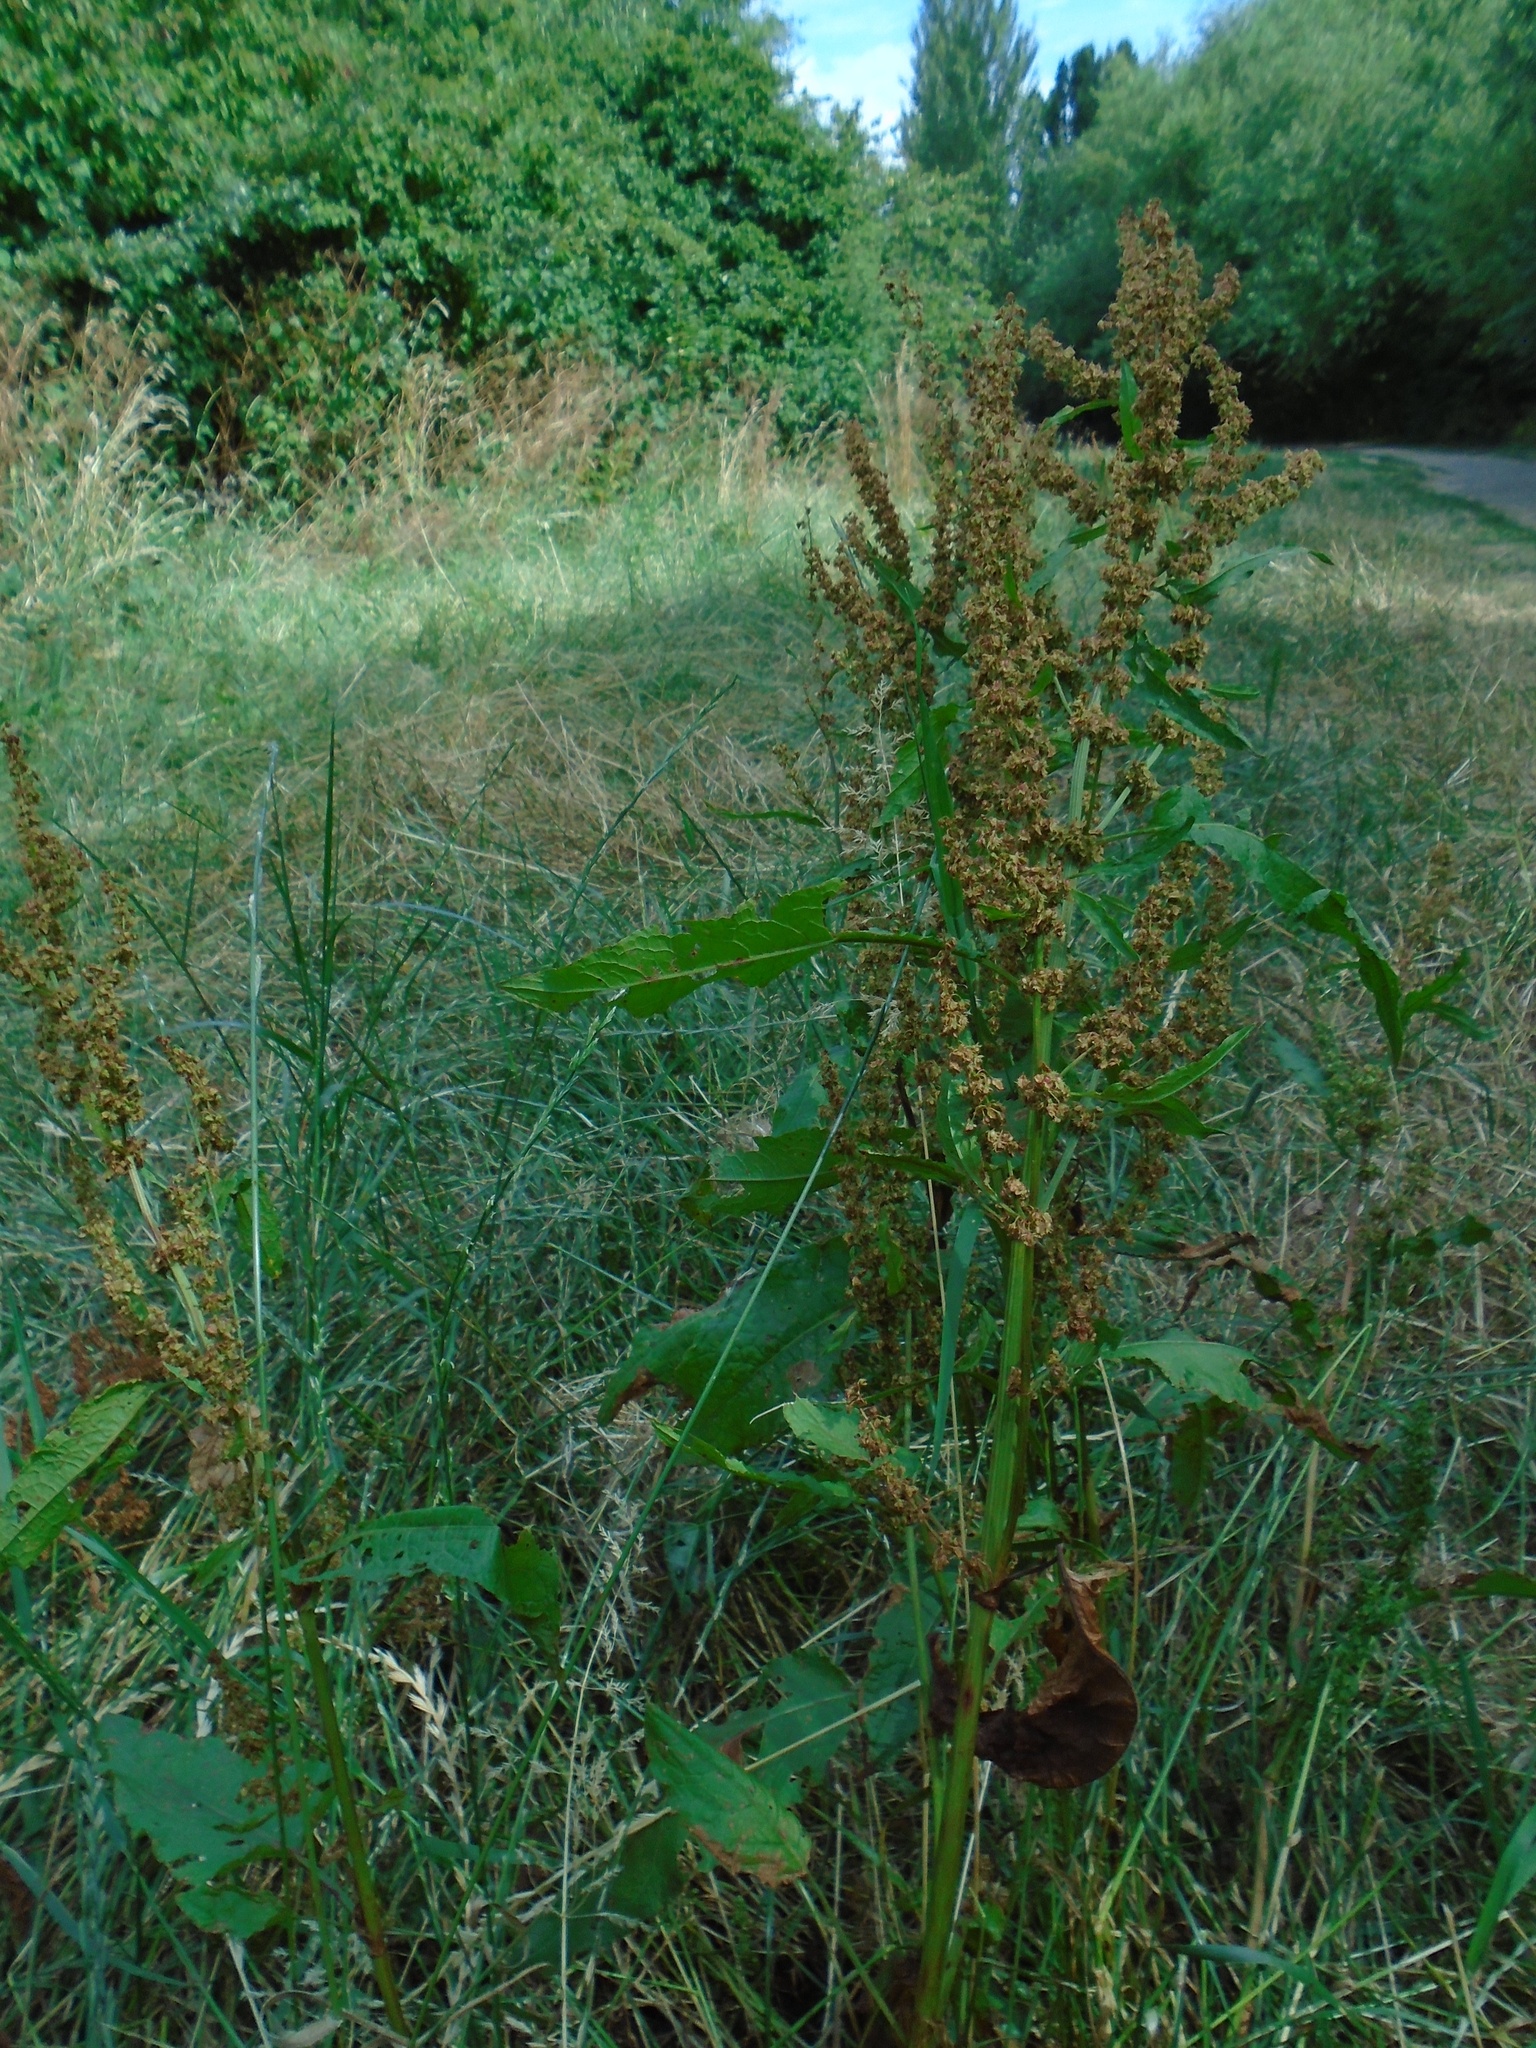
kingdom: Plantae
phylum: Tracheophyta
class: Magnoliopsida
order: Caryophyllales
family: Polygonaceae
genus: Rumex
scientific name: Rumex obtusifolius
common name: Bitter dock
